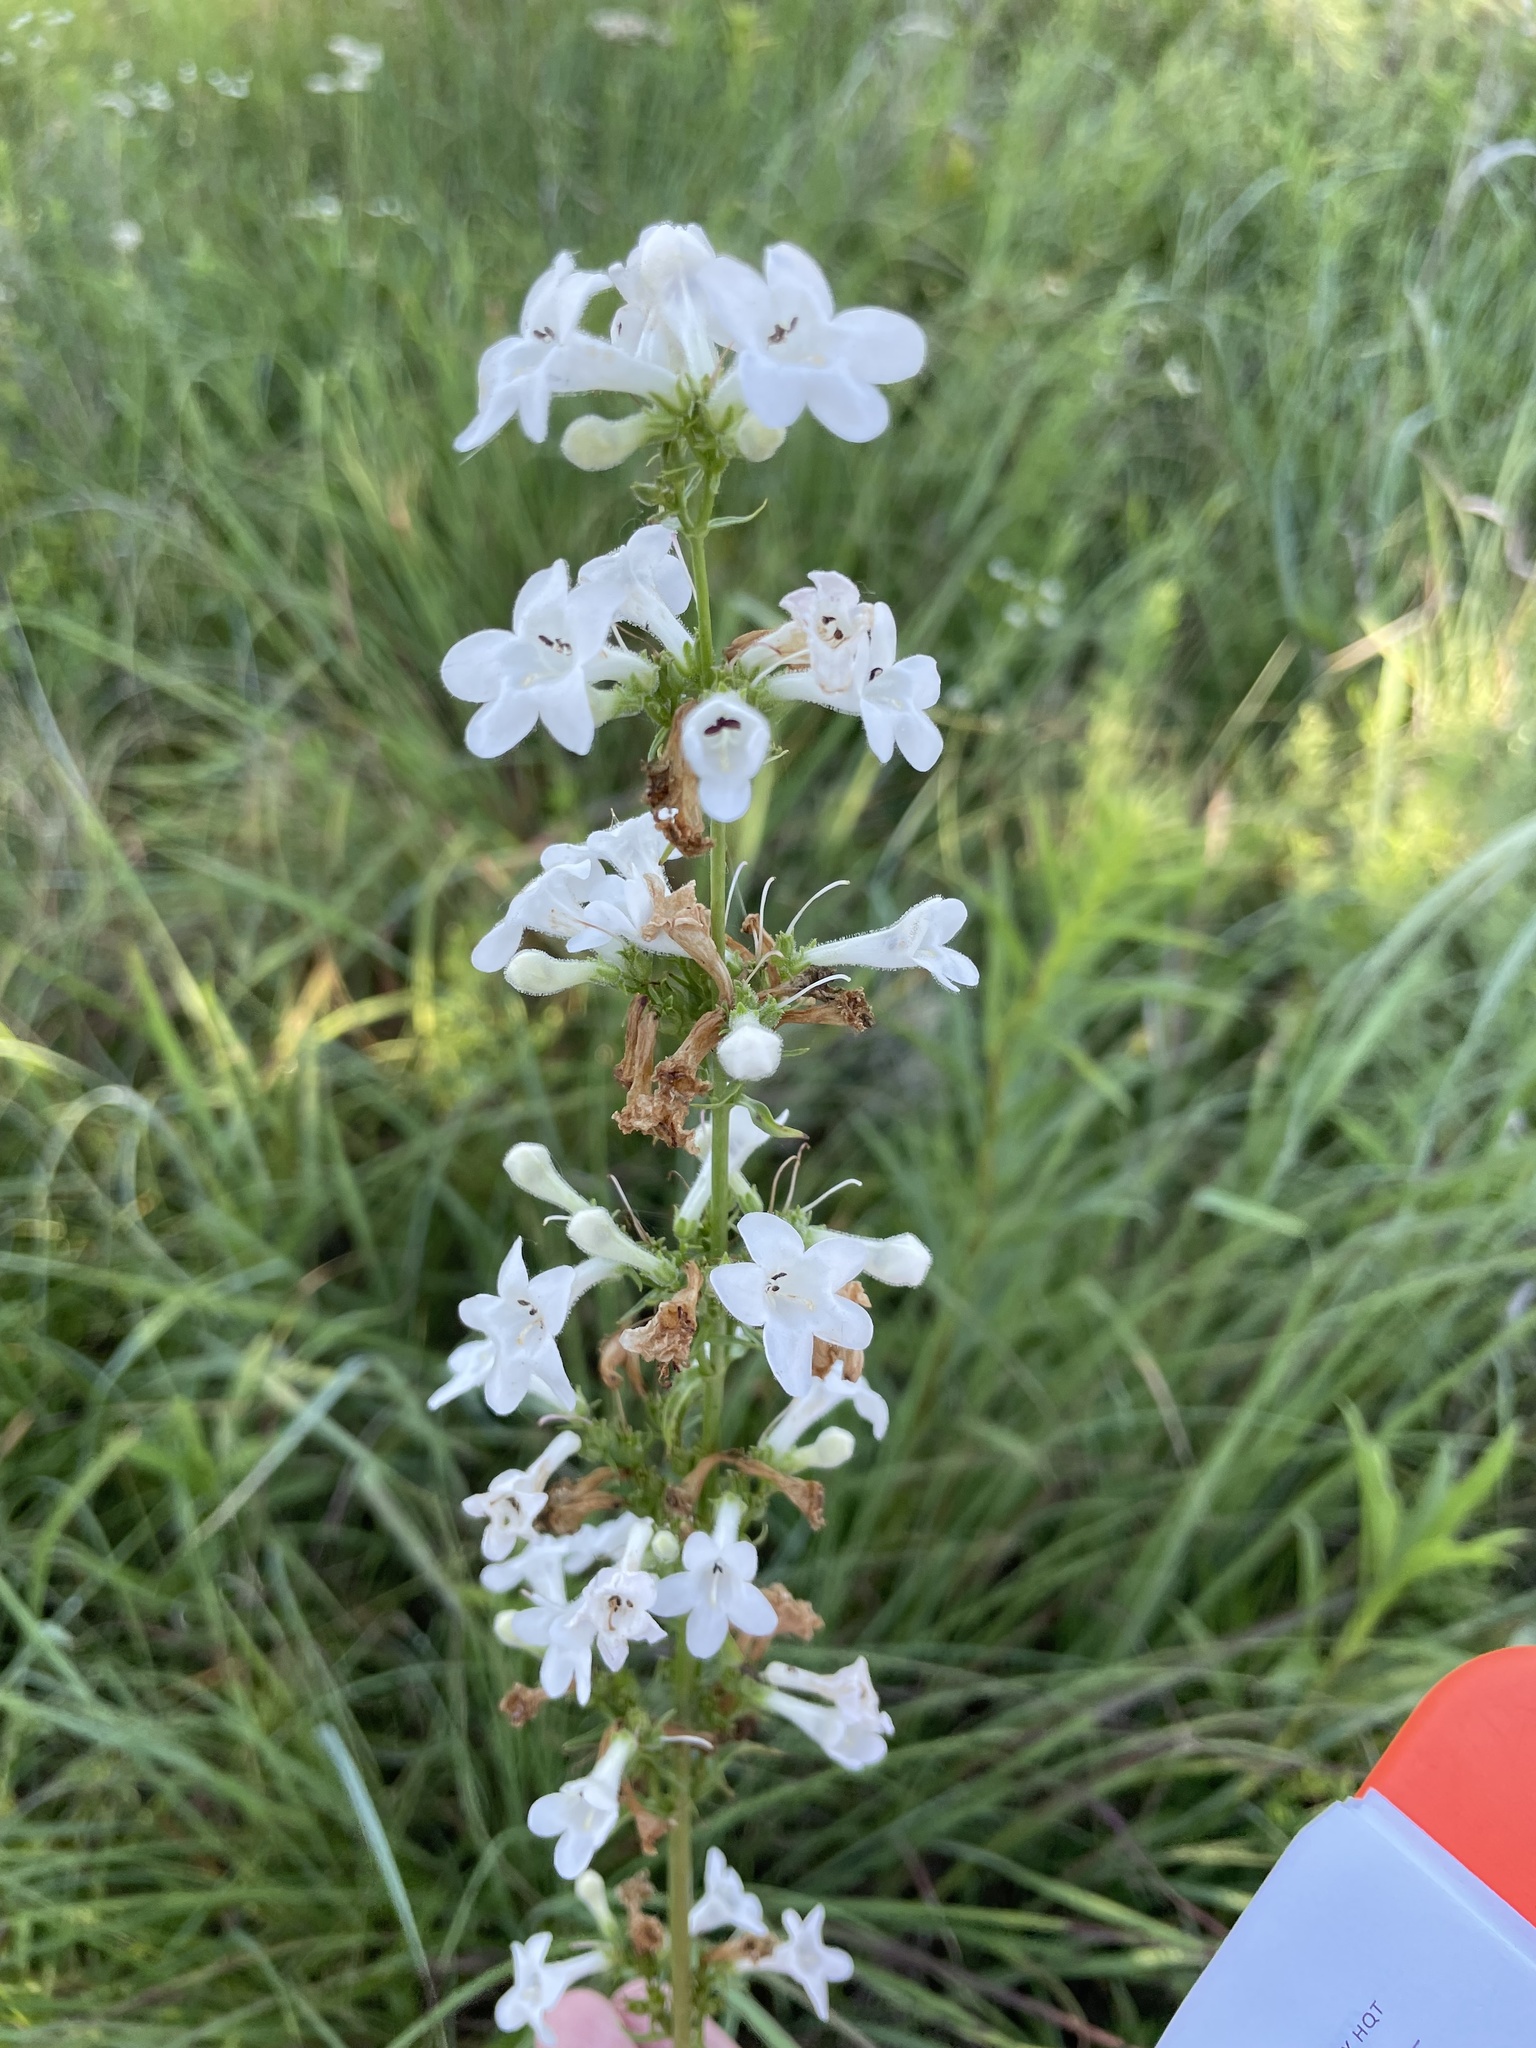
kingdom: Plantae
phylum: Tracheophyta
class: Magnoliopsida
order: Lamiales
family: Plantaginaceae
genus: Penstemon
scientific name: Penstemon digitalis
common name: Foxglove beardtongue
